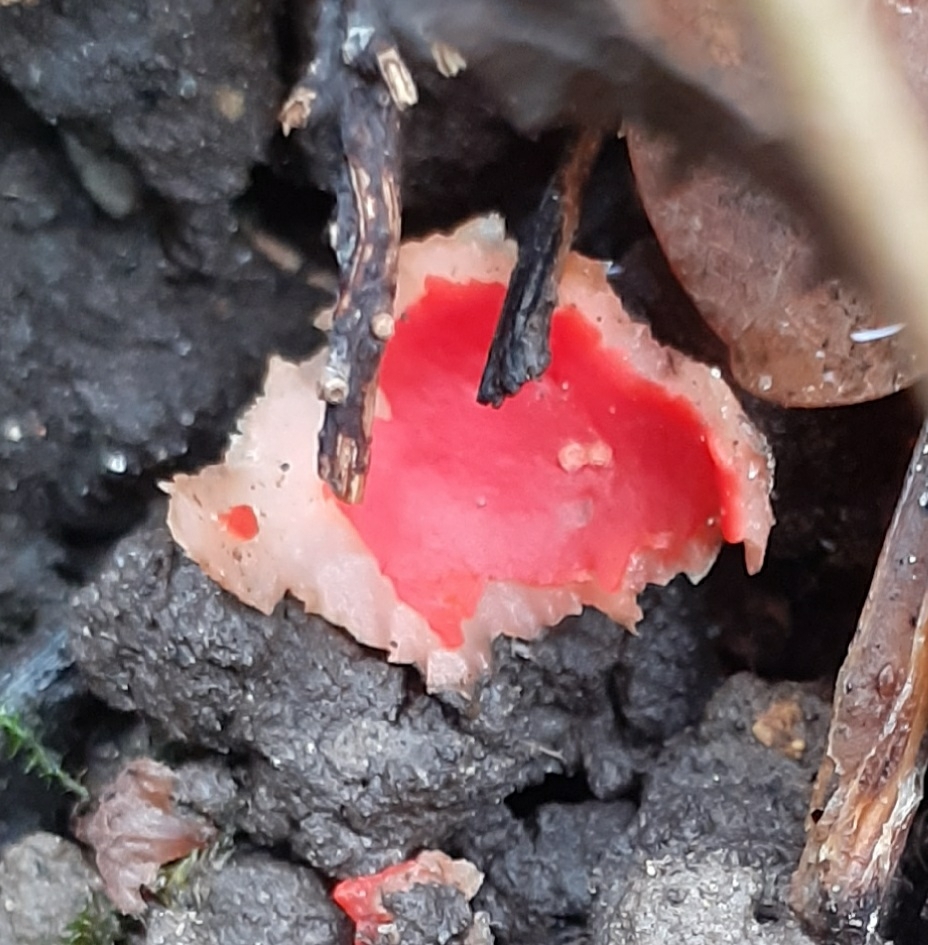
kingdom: Fungi
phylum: Ascomycota
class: Pezizomycetes
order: Pezizales
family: Sarcoscyphaceae
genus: Sarcoscypha
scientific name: Sarcoscypha
